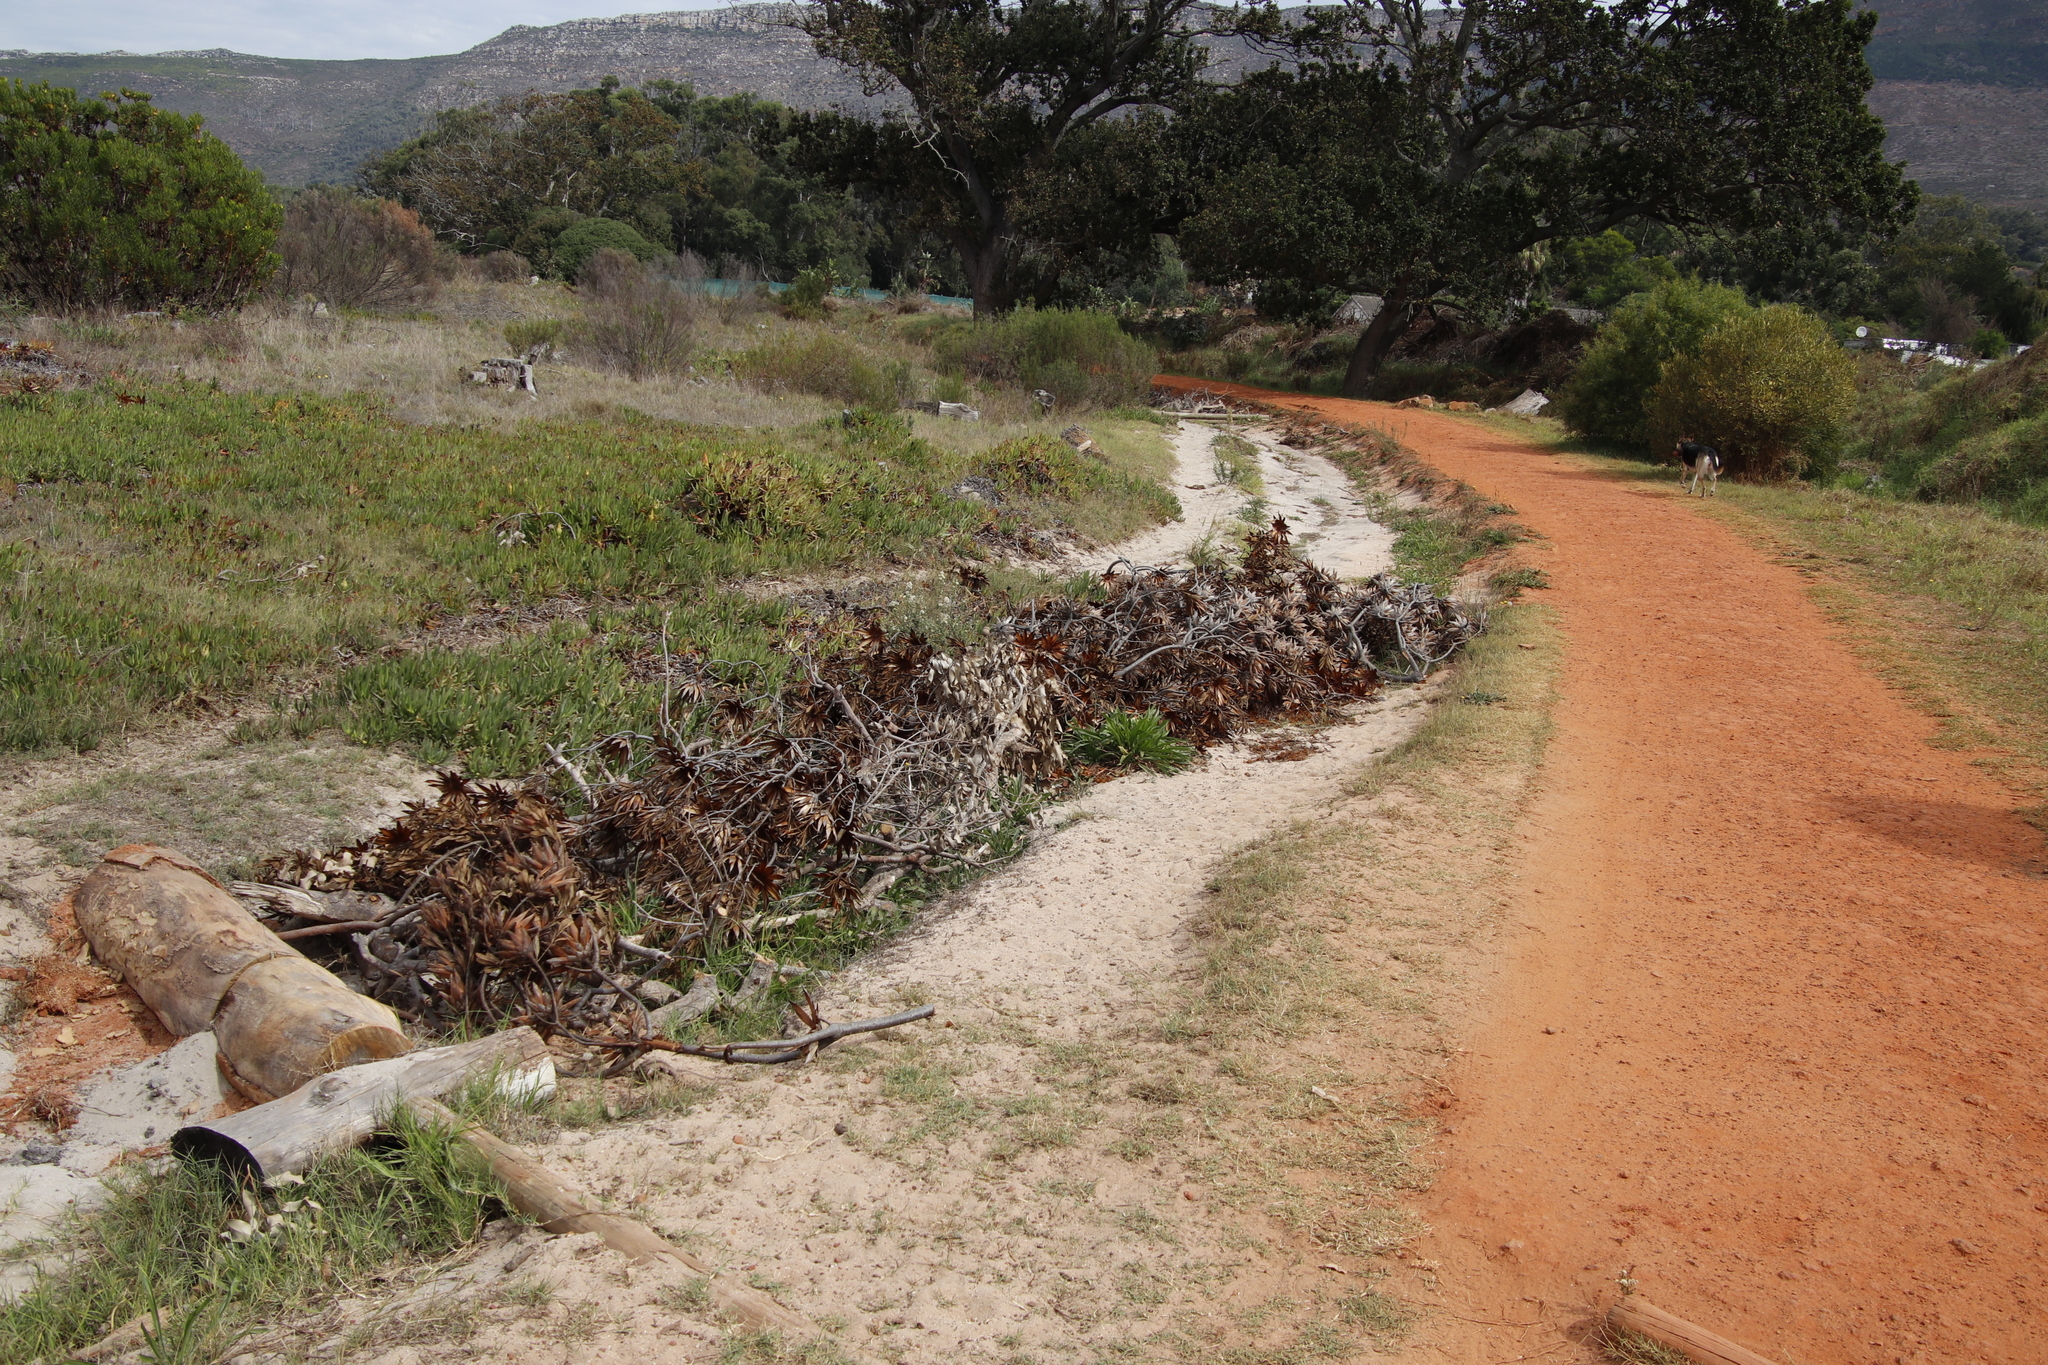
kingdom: Plantae
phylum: Tracheophyta
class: Magnoliopsida
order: Proteales
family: Proteaceae
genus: Protea
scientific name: Protea repens
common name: Sugarbush
